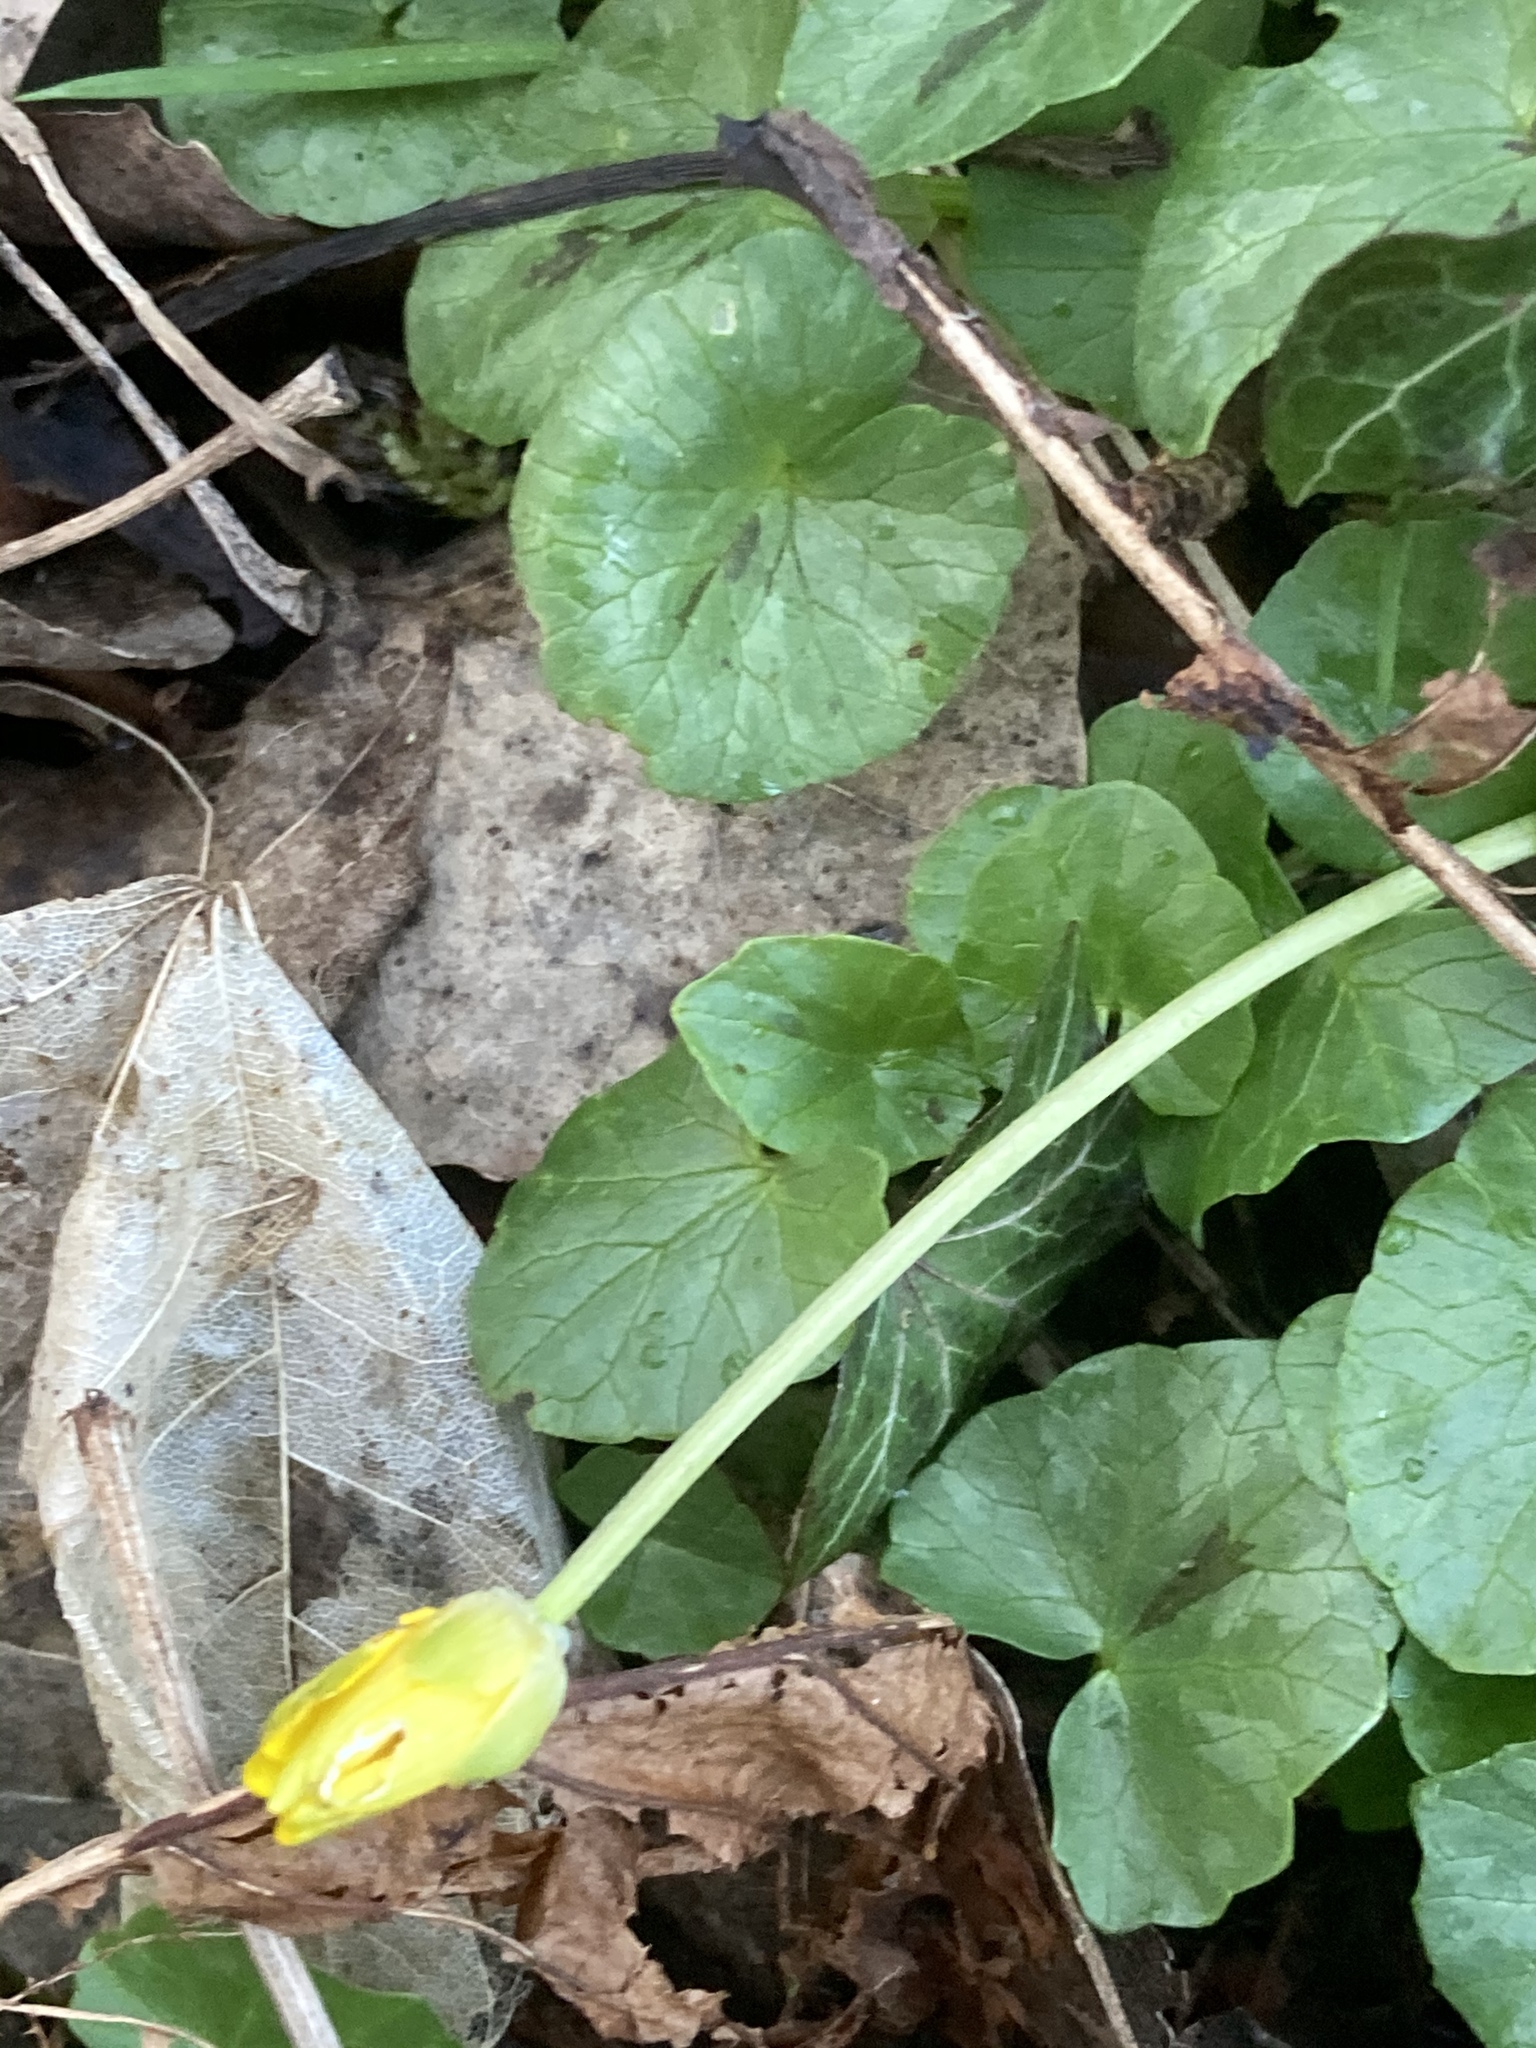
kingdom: Plantae
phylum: Tracheophyta
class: Magnoliopsida
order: Ranunculales
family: Ranunculaceae
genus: Ficaria
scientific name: Ficaria verna
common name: Lesser celandine
